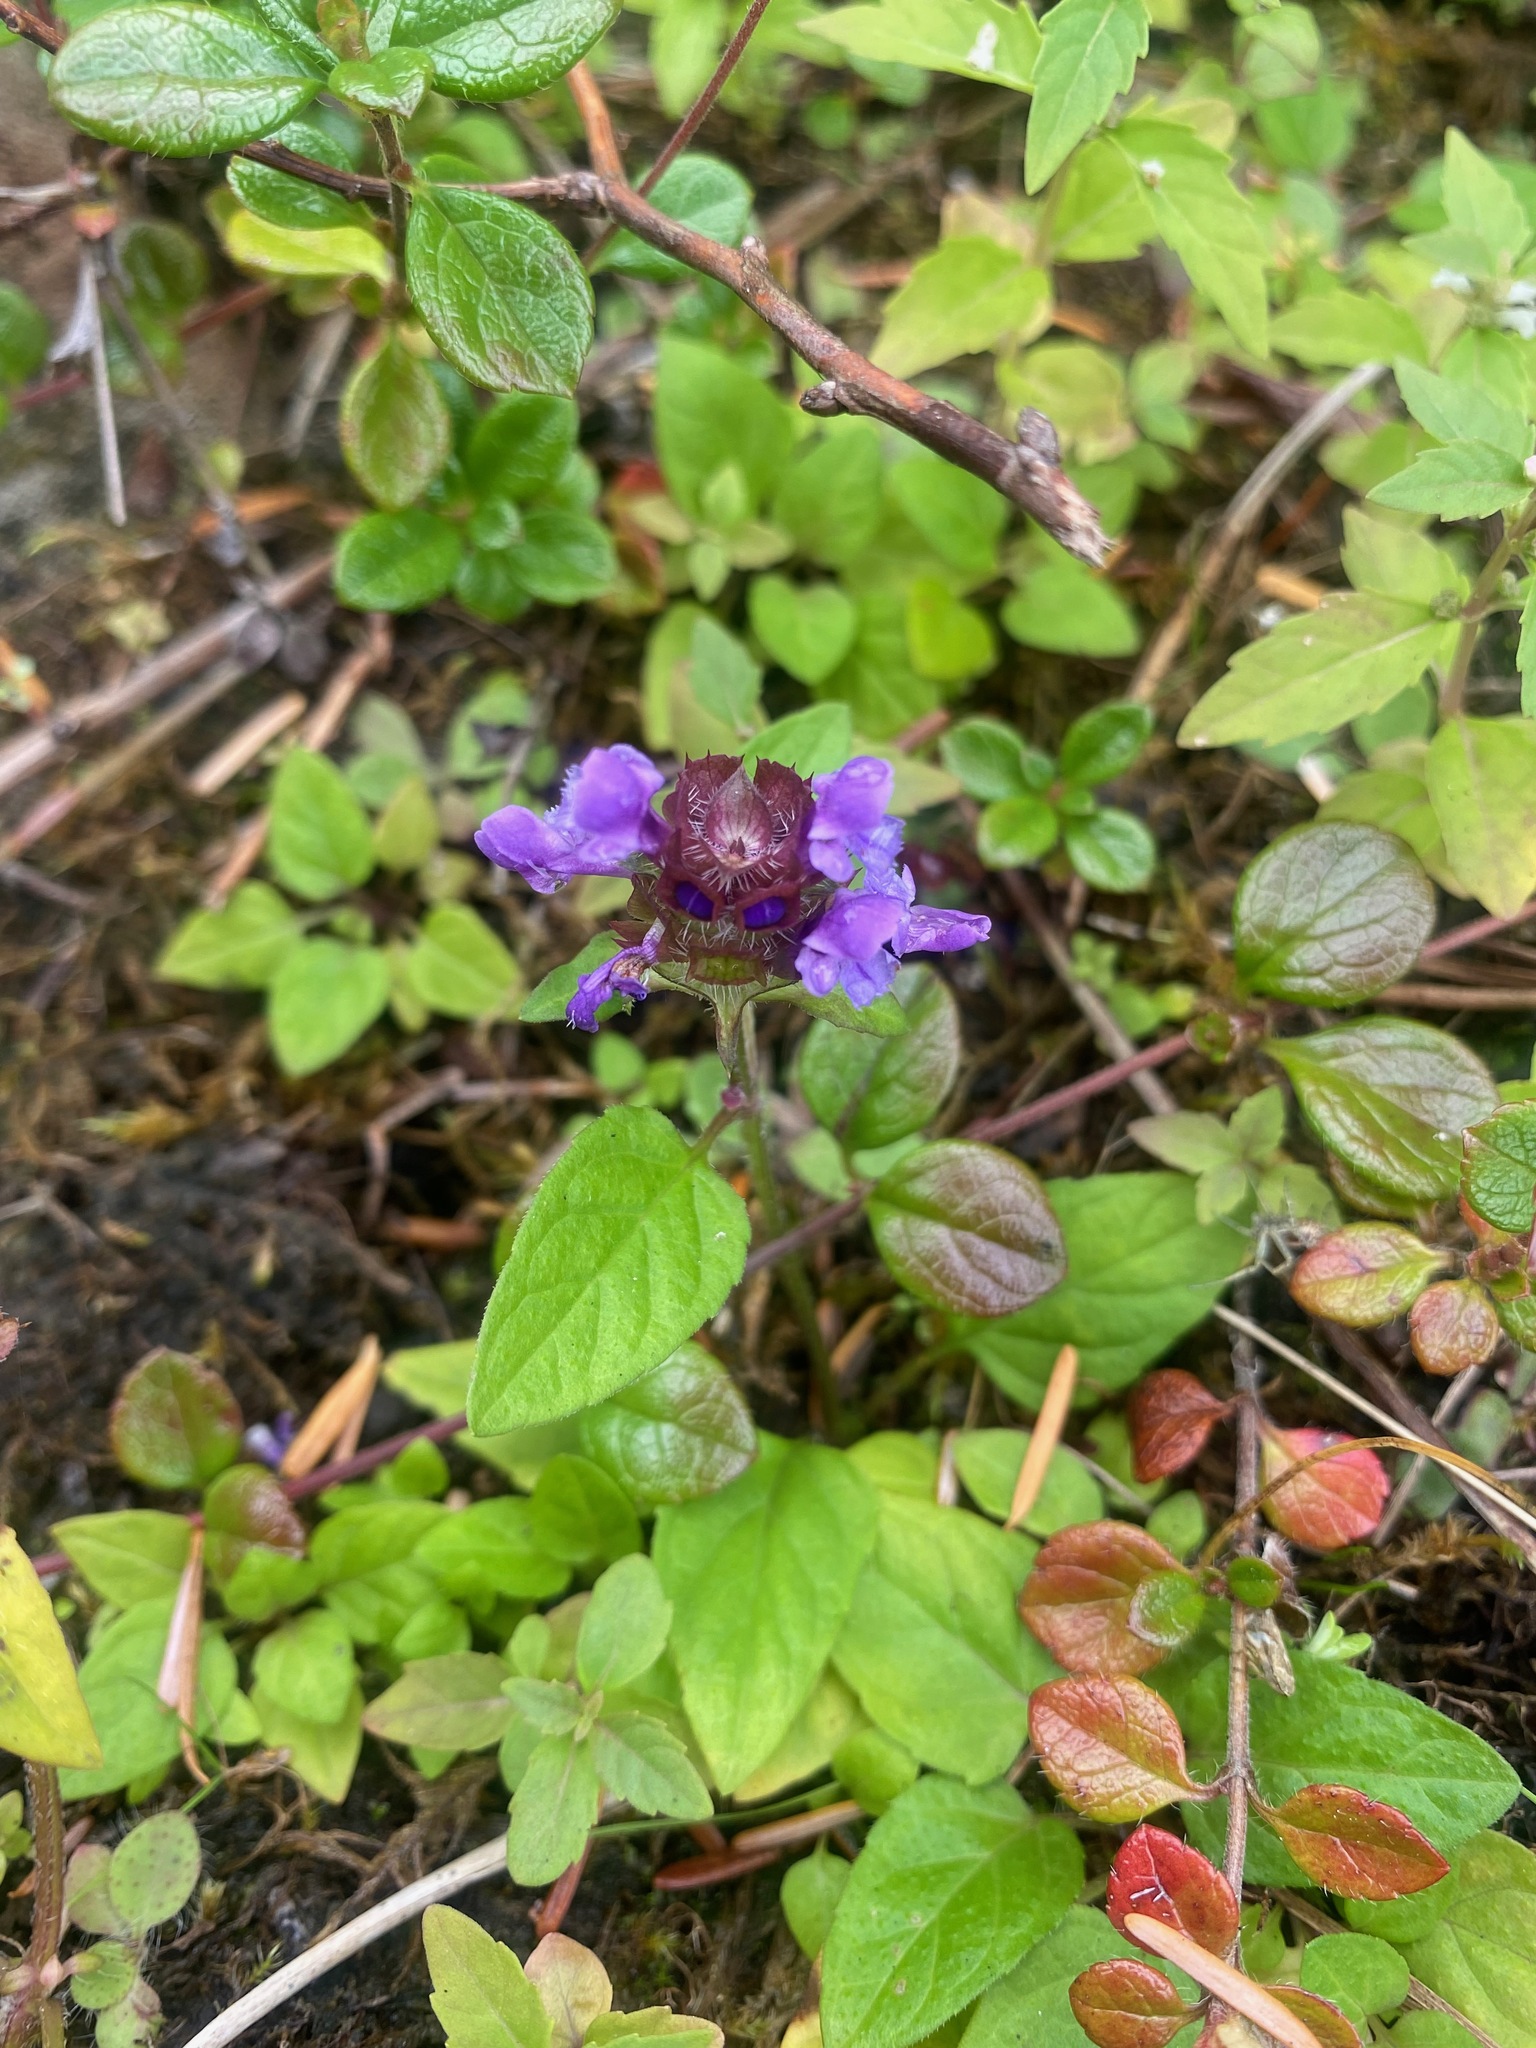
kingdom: Plantae
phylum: Tracheophyta
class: Magnoliopsida
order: Lamiales
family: Lamiaceae
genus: Prunella
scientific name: Prunella vulgaris
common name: Heal-all
